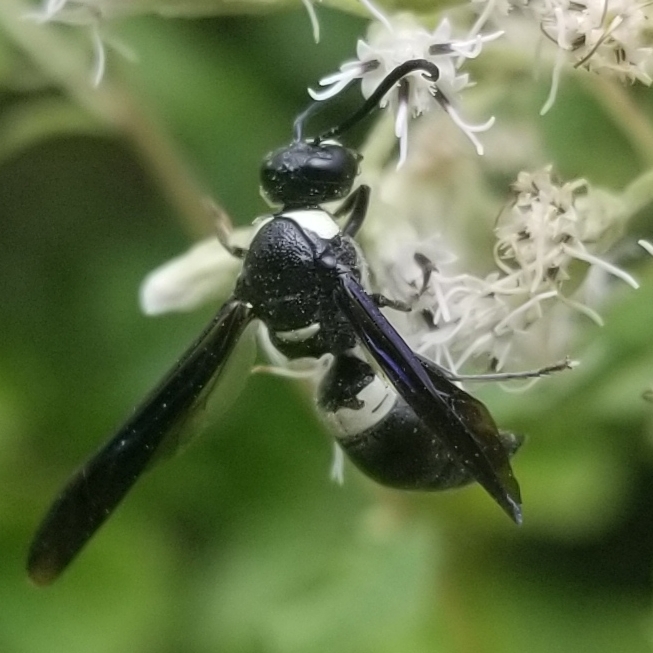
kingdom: Animalia
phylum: Arthropoda
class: Insecta
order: Hymenoptera
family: Eumenidae
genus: Monobia
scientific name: Monobia quadridens
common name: Four-toothed mason wasp
